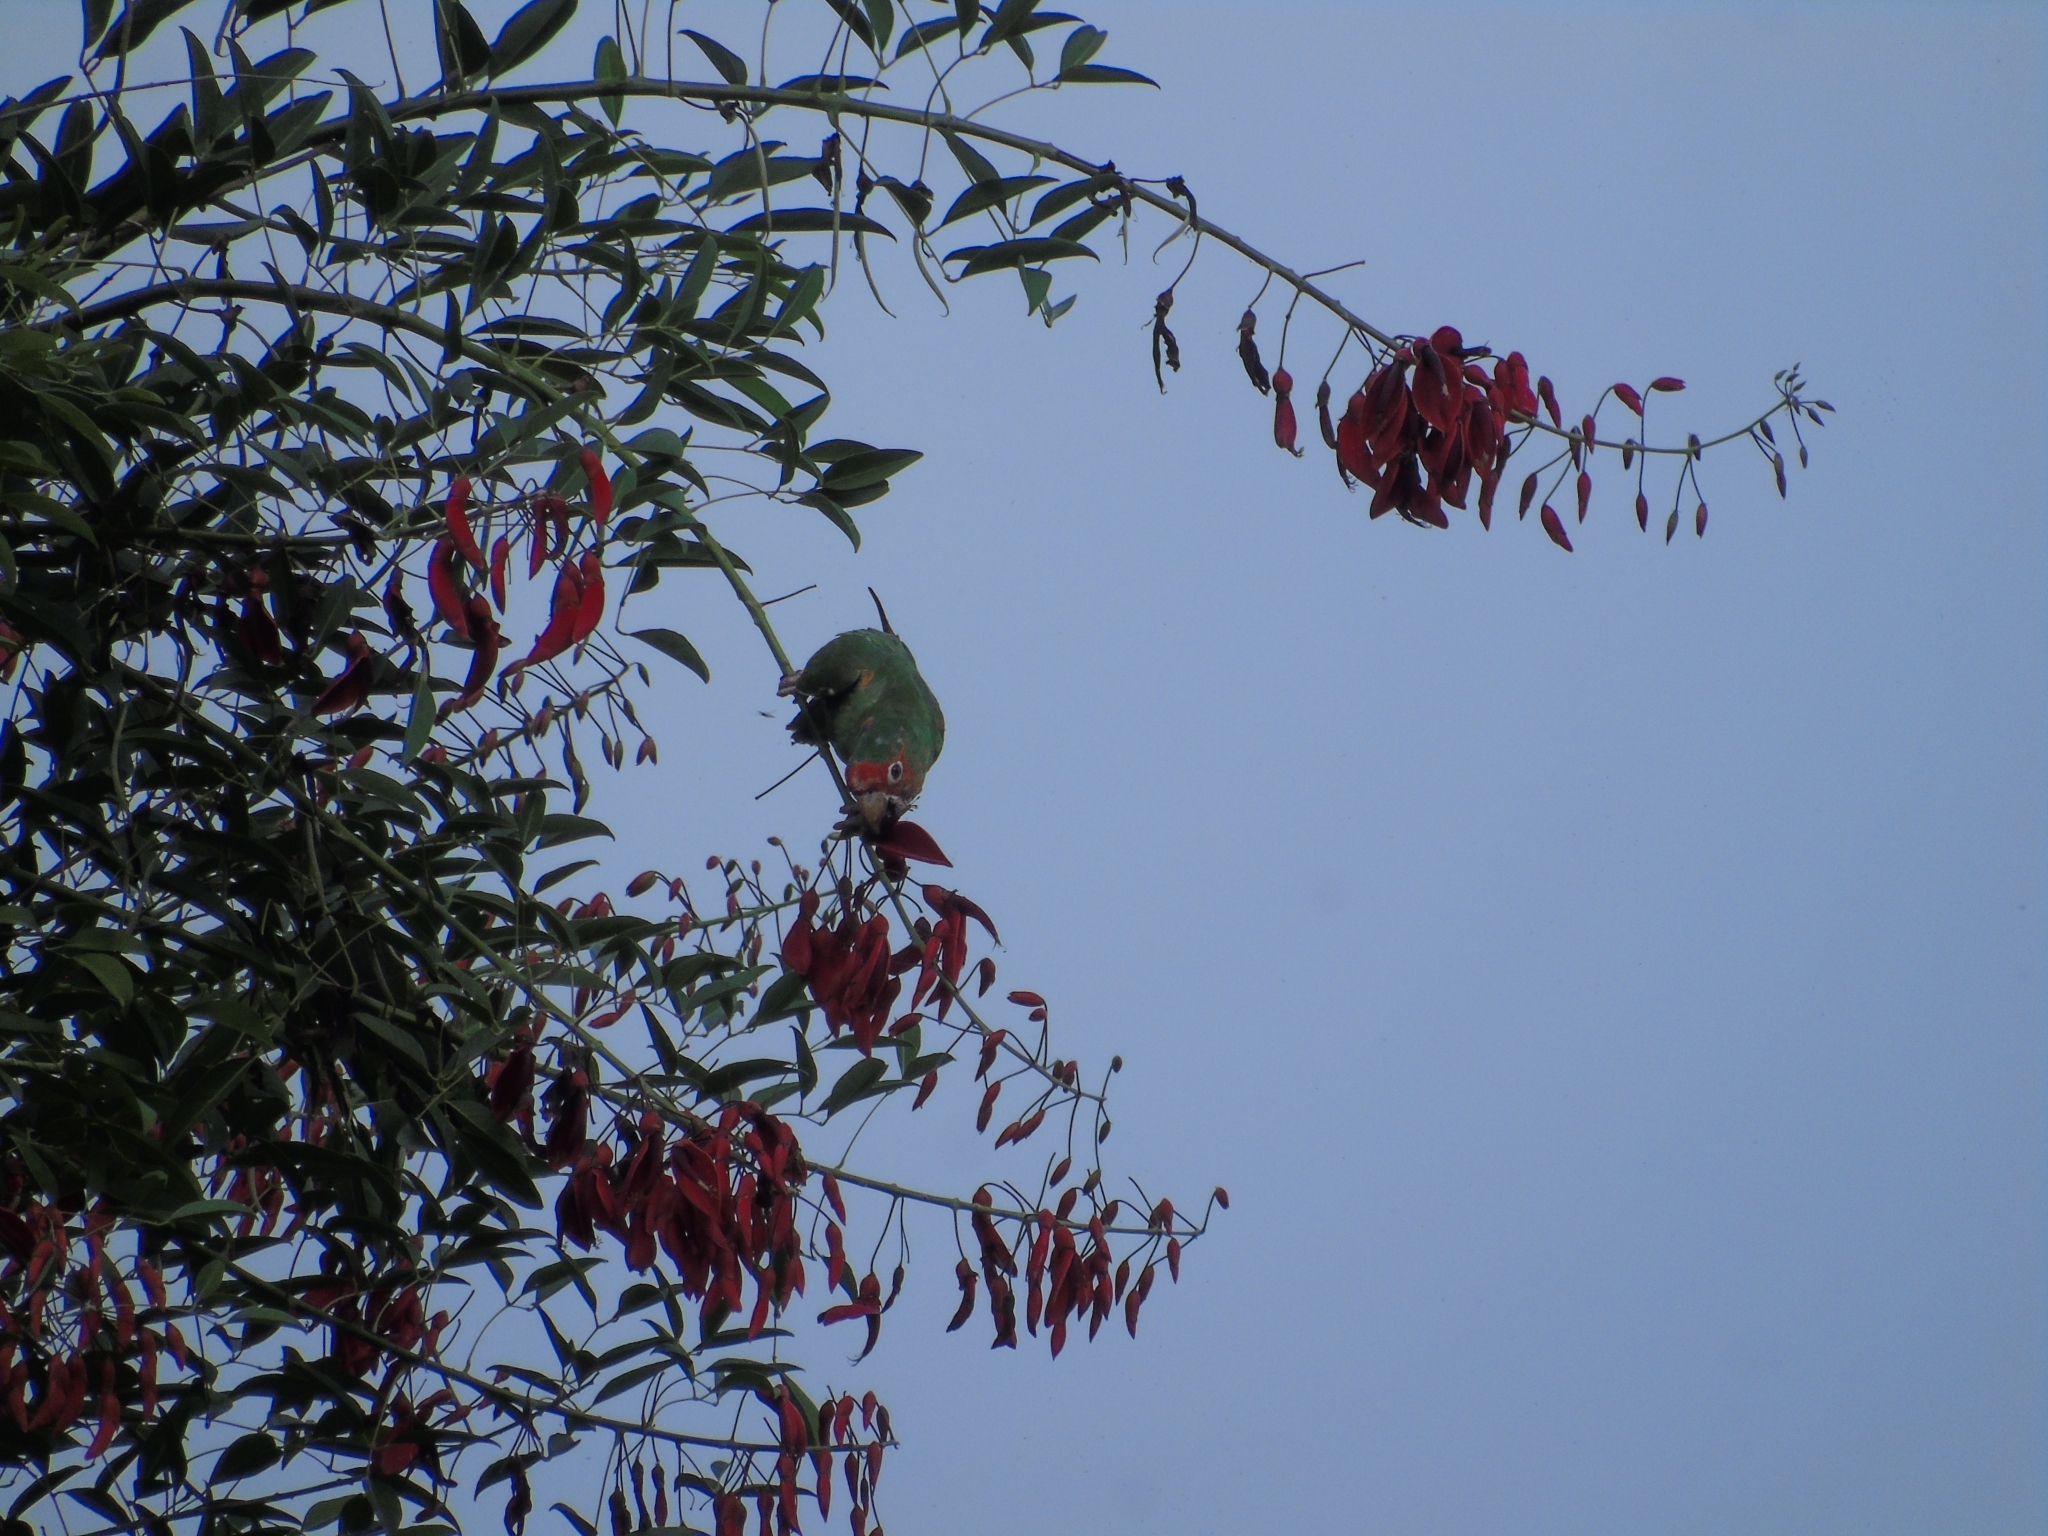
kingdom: Animalia
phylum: Chordata
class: Aves
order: Psittaciformes
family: Psittacidae
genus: Aratinga
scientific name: Aratinga mitrata
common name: Mitred parakeet
